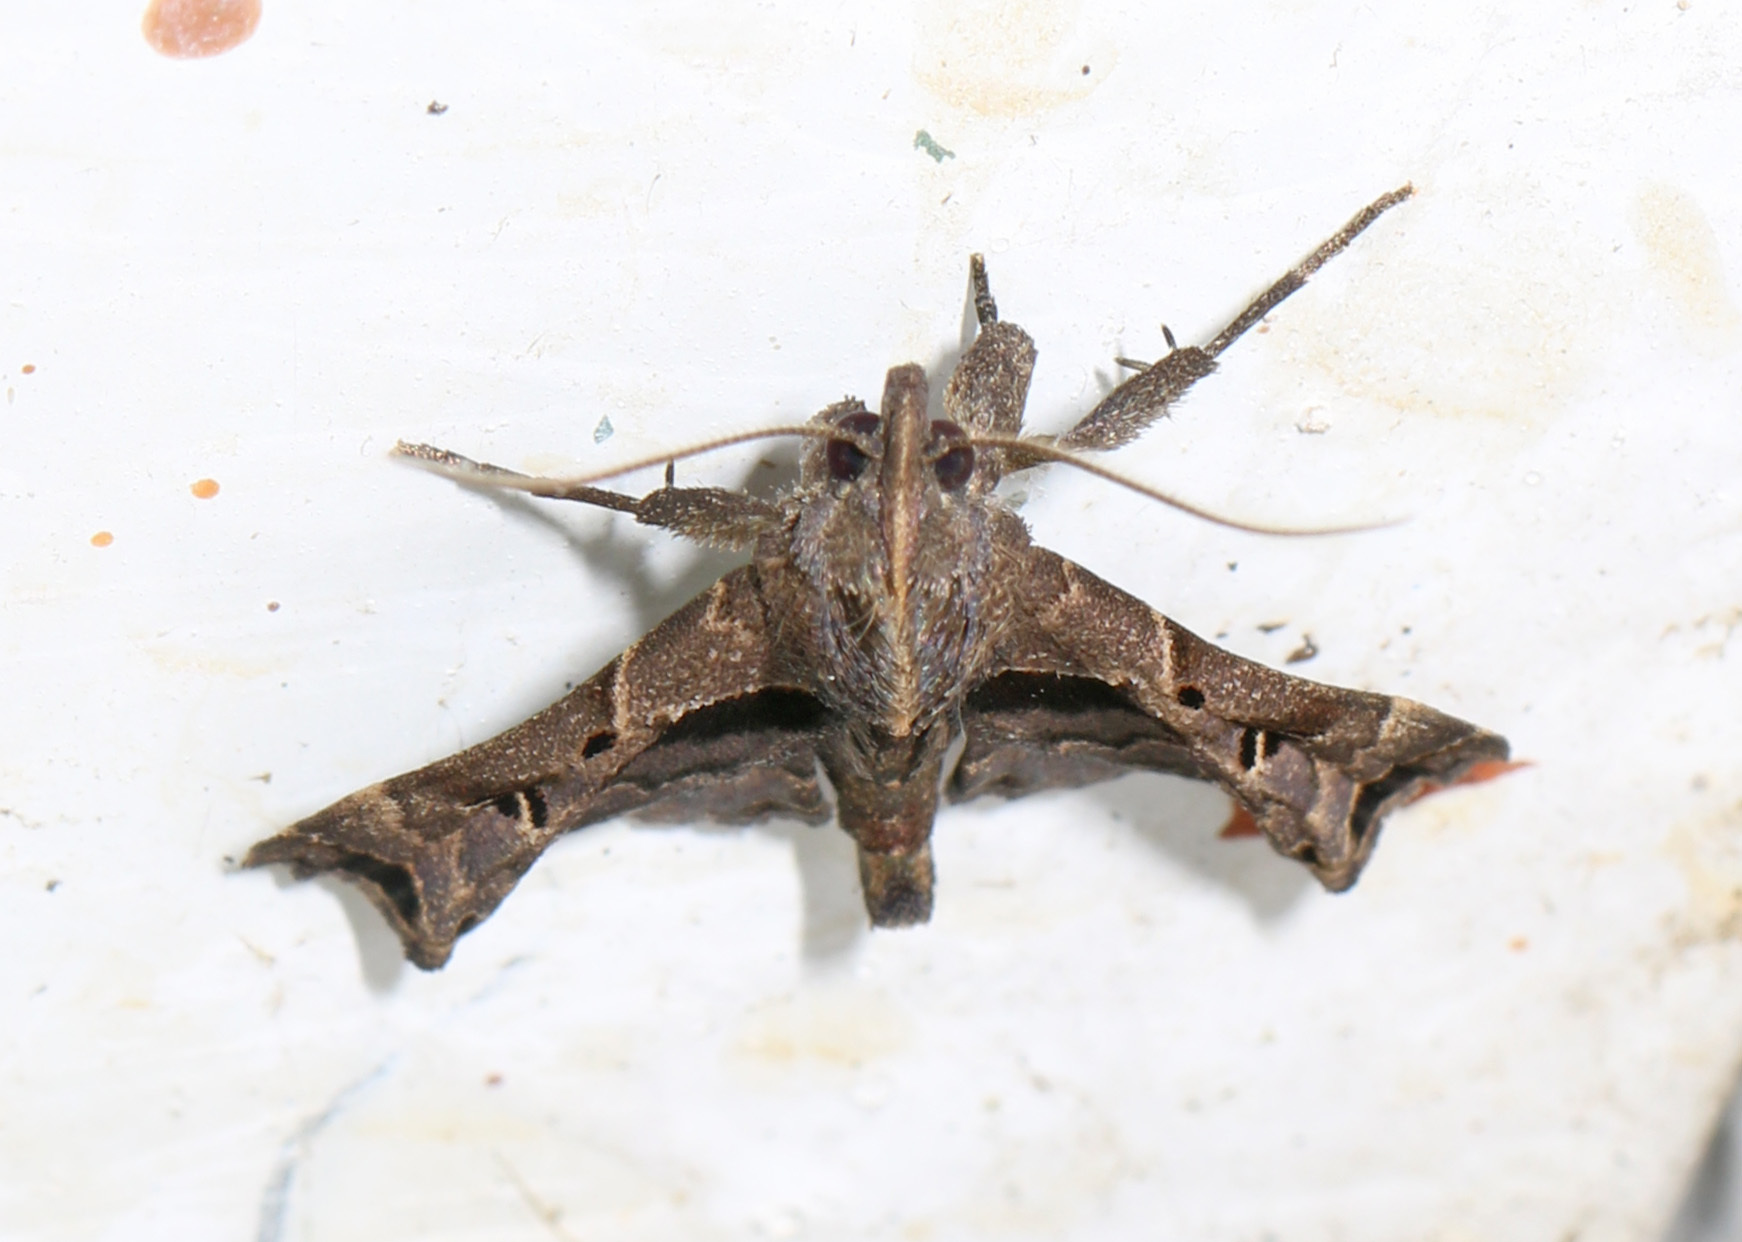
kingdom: Animalia
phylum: Arthropoda
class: Insecta
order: Lepidoptera
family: Erebidae
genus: Palthis
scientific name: Palthis asopialis
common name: Faint-spotted palthis moth
